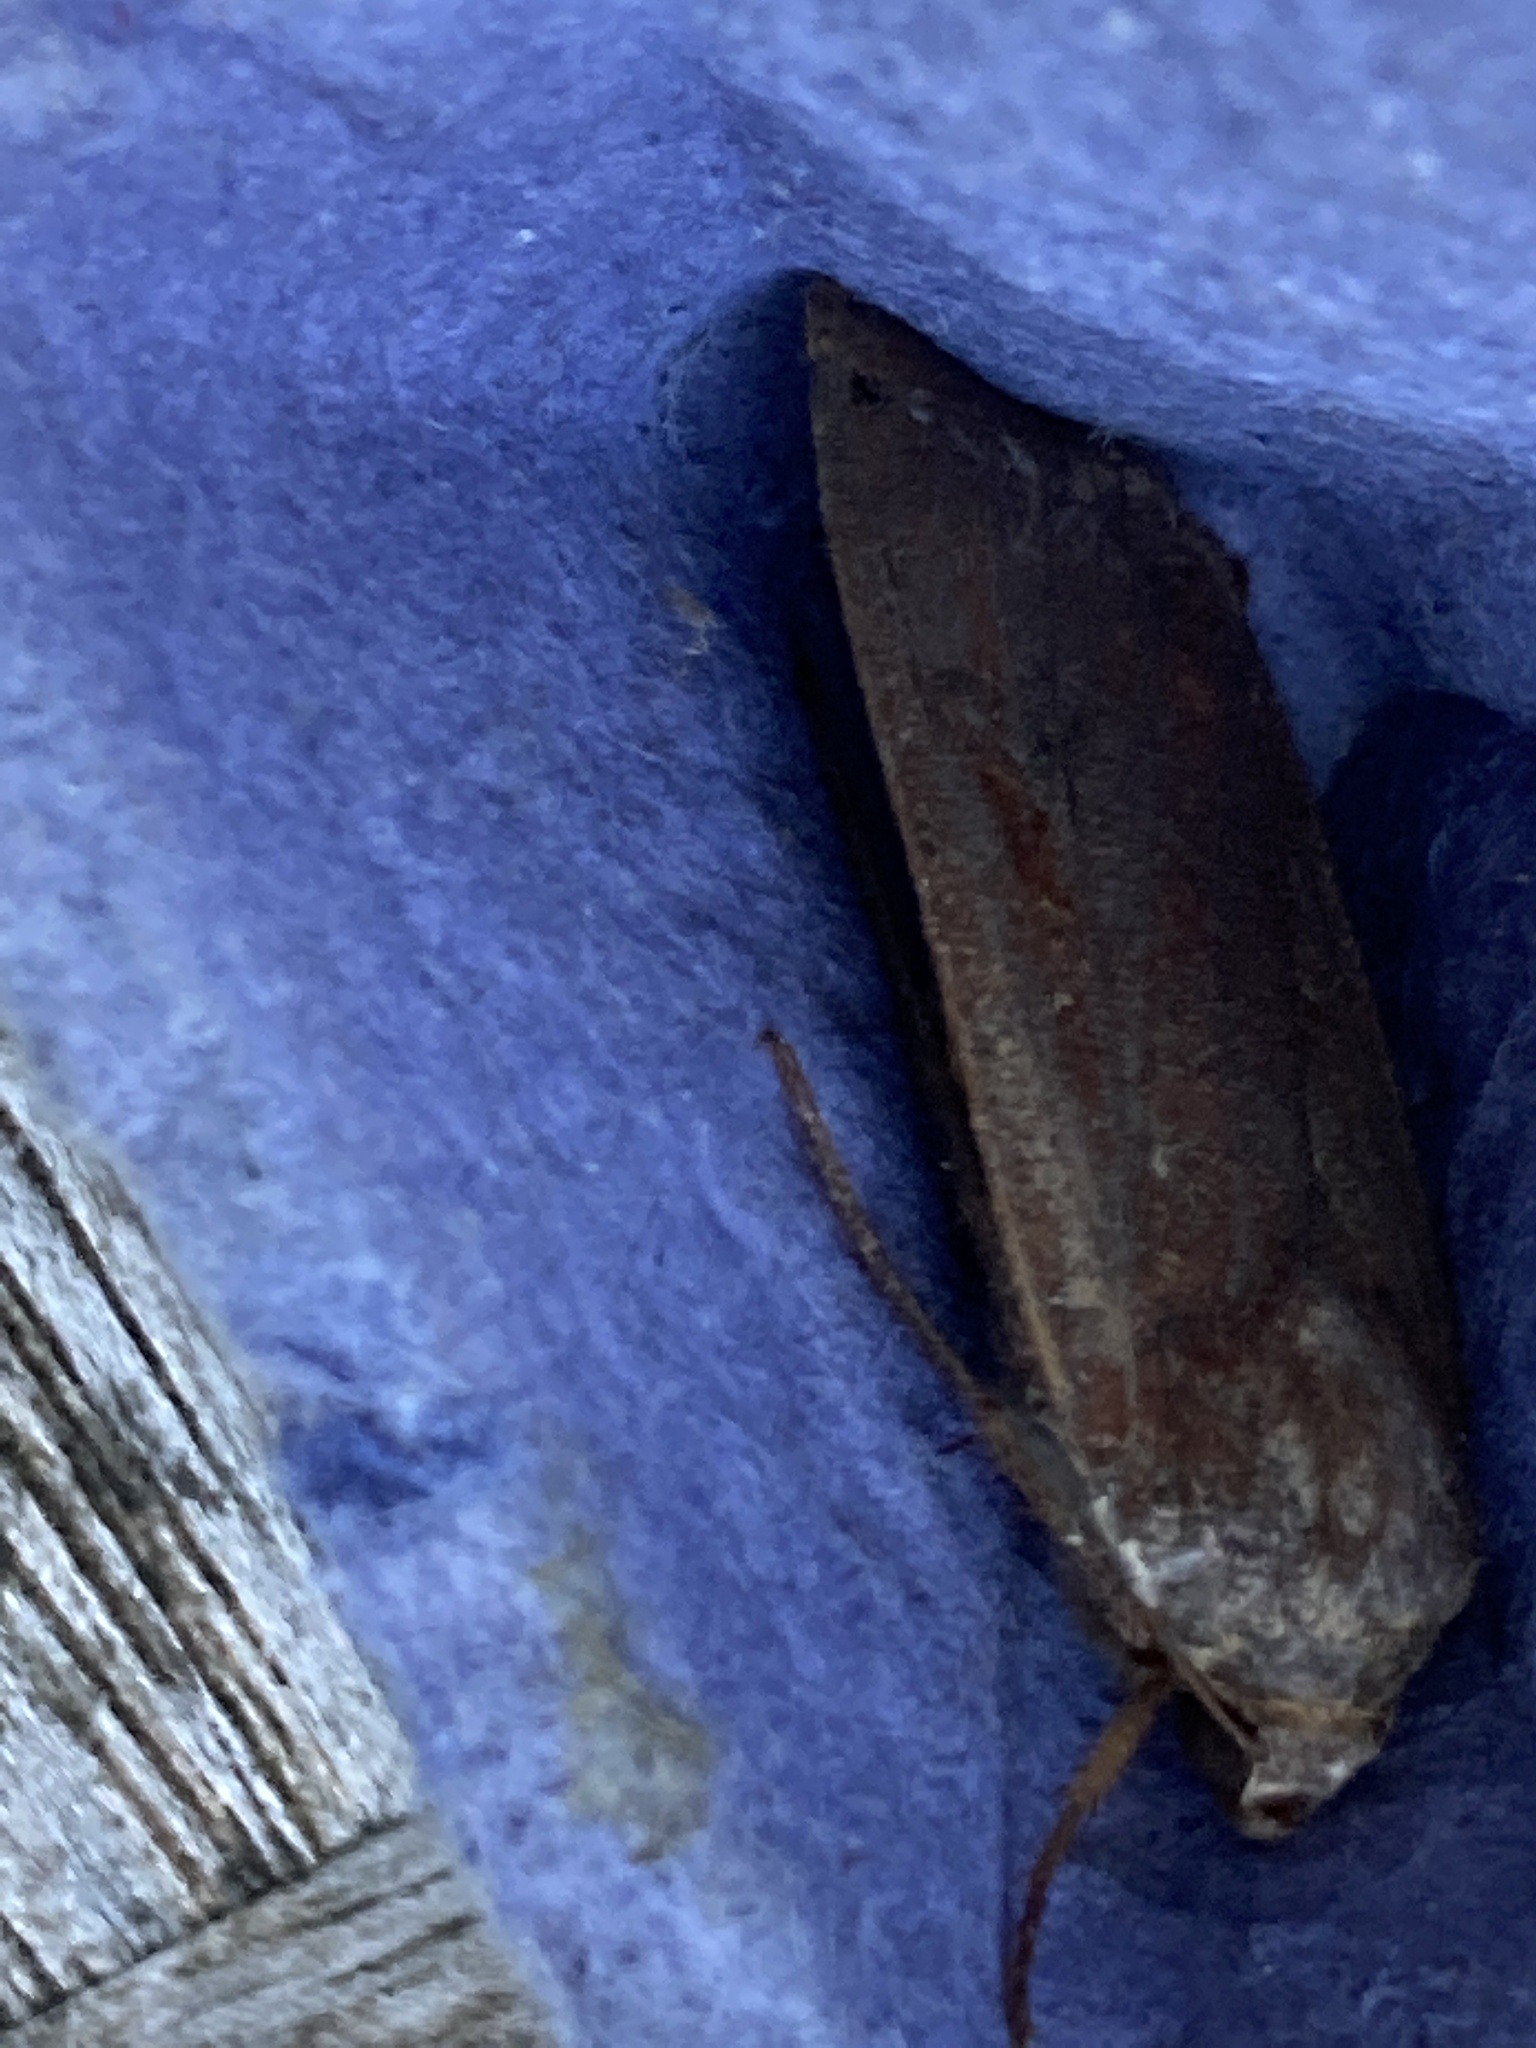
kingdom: Animalia
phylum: Arthropoda
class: Insecta
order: Lepidoptera
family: Noctuidae
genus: Noctua
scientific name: Noctua pronuba
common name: Large yellow underwing
